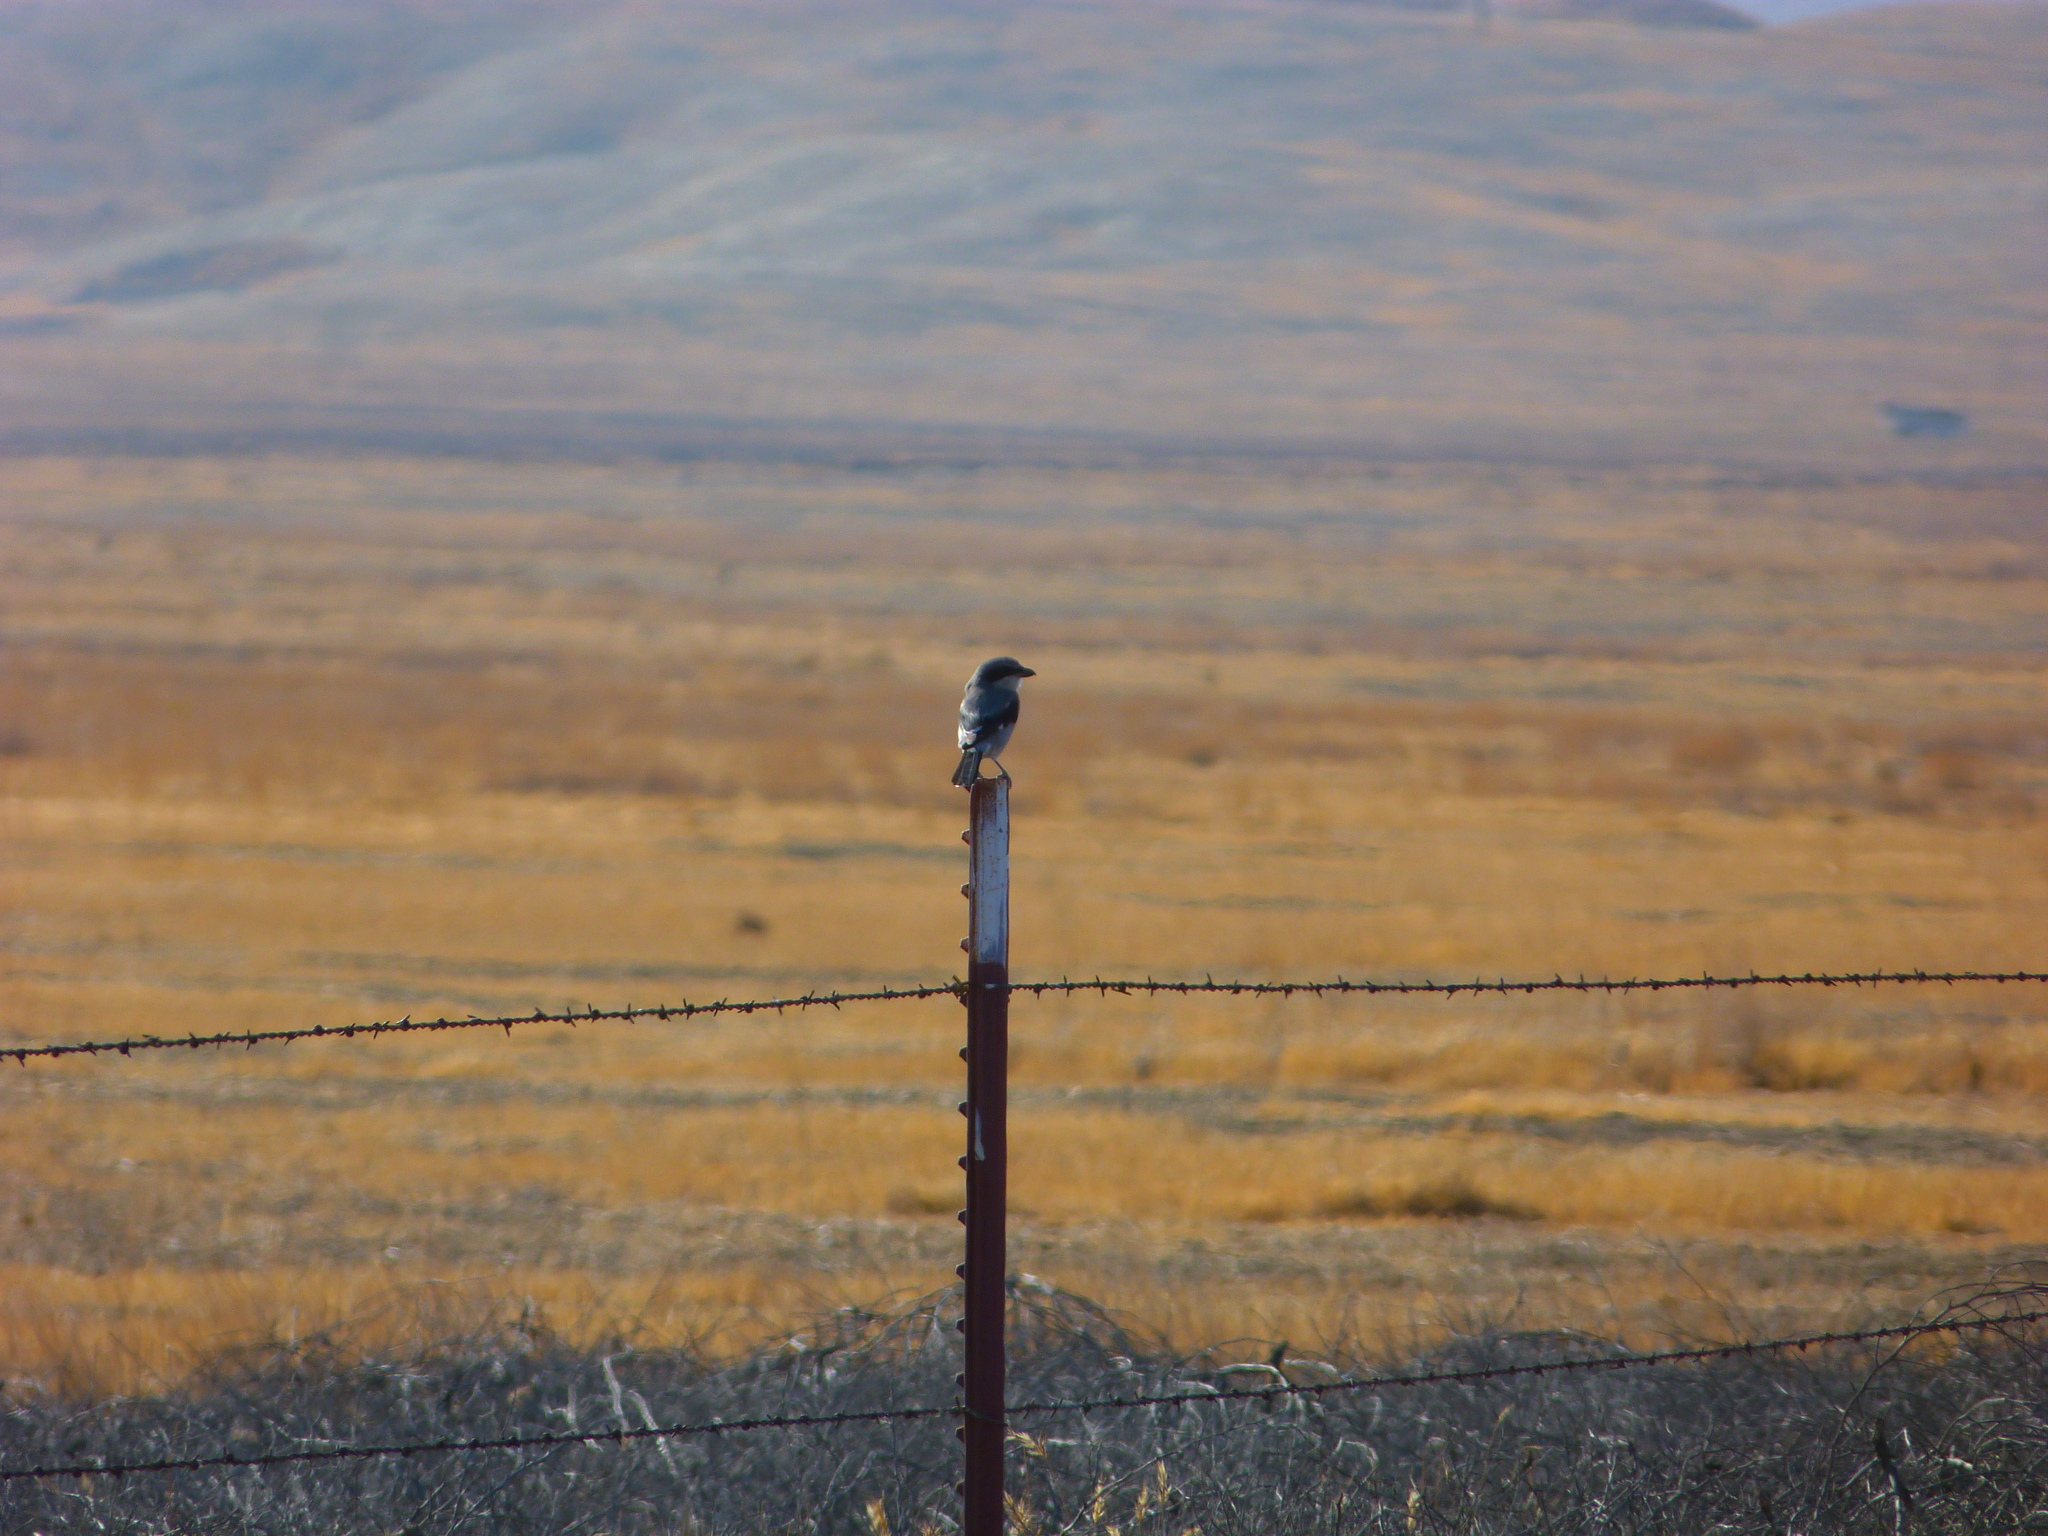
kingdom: Animalia
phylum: Chordata
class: Aves
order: Passeriformes
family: Laniidae
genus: Lanius
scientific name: Lanius ludovicianus
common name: Loggerhead shrike
